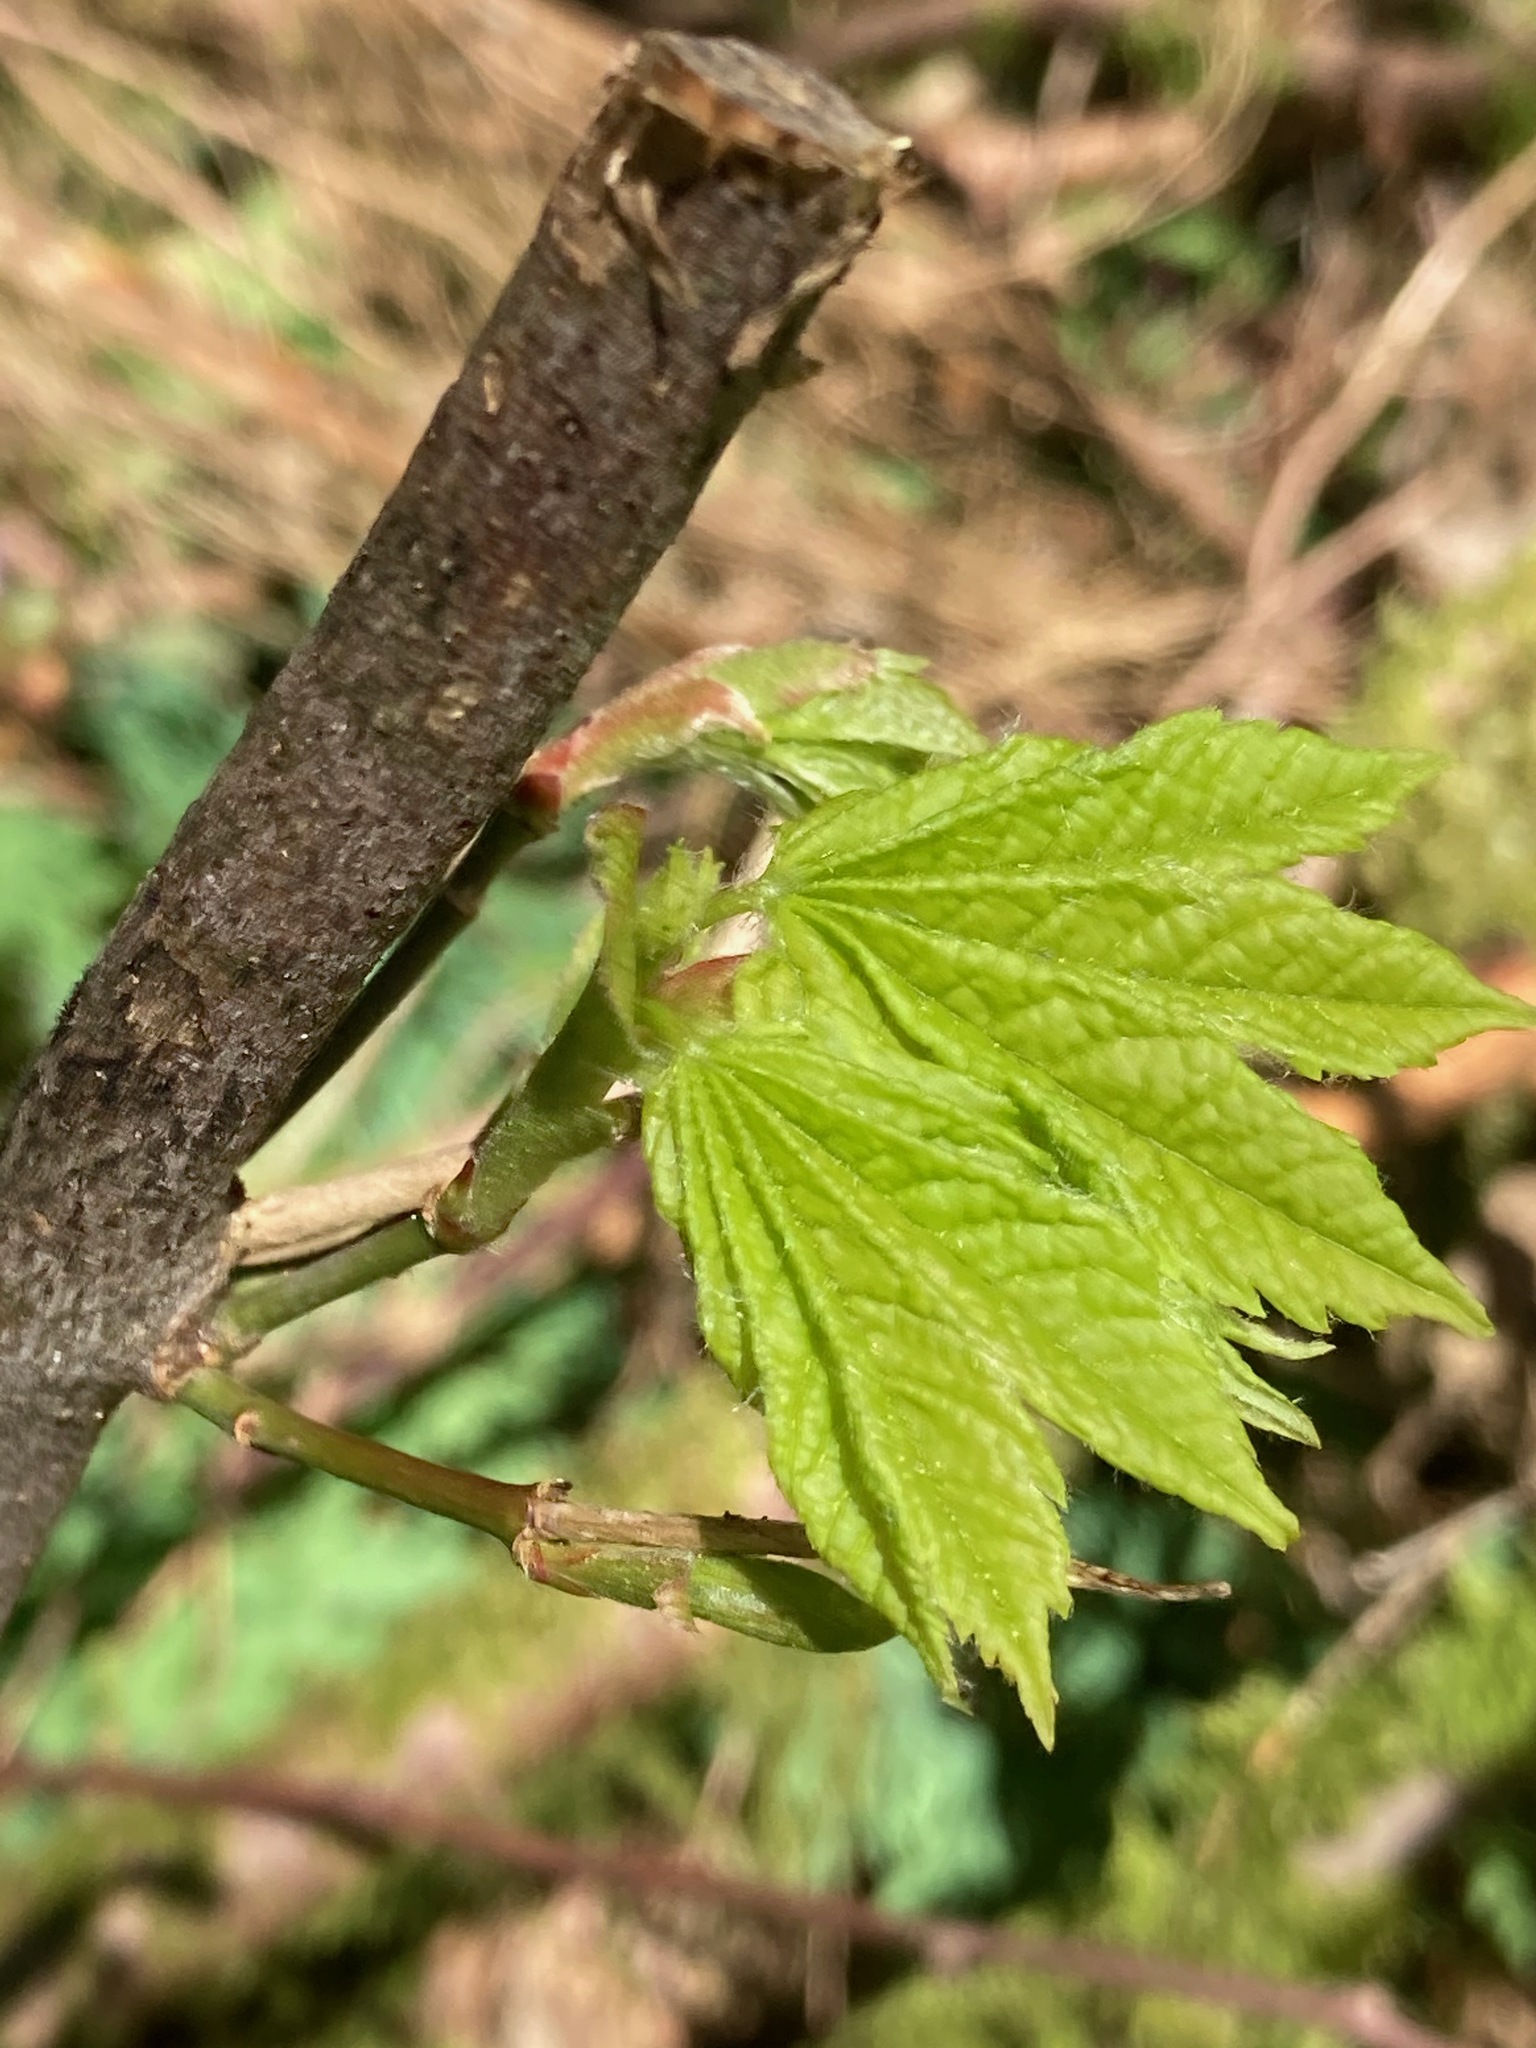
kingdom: Plantae
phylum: Tracheophyta
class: Magnoliopsida
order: Sapindales
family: Sapindaceae
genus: Acer
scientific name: Acer circinatum
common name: Vine maple
